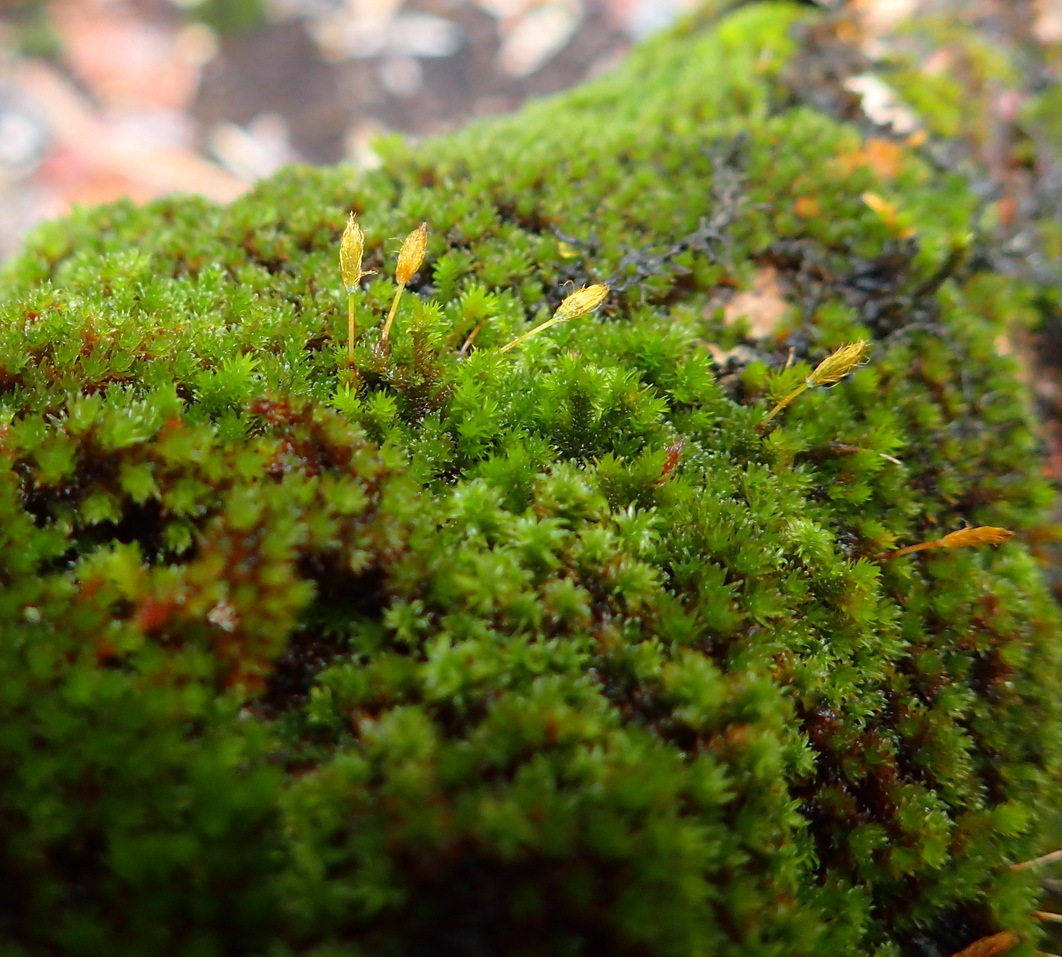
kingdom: Plantae
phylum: Bryophyta
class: Bryopsida
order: Orthotrichales
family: Orthotrichaceae
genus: Macrocoma
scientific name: Macrocoma lycopodioides
